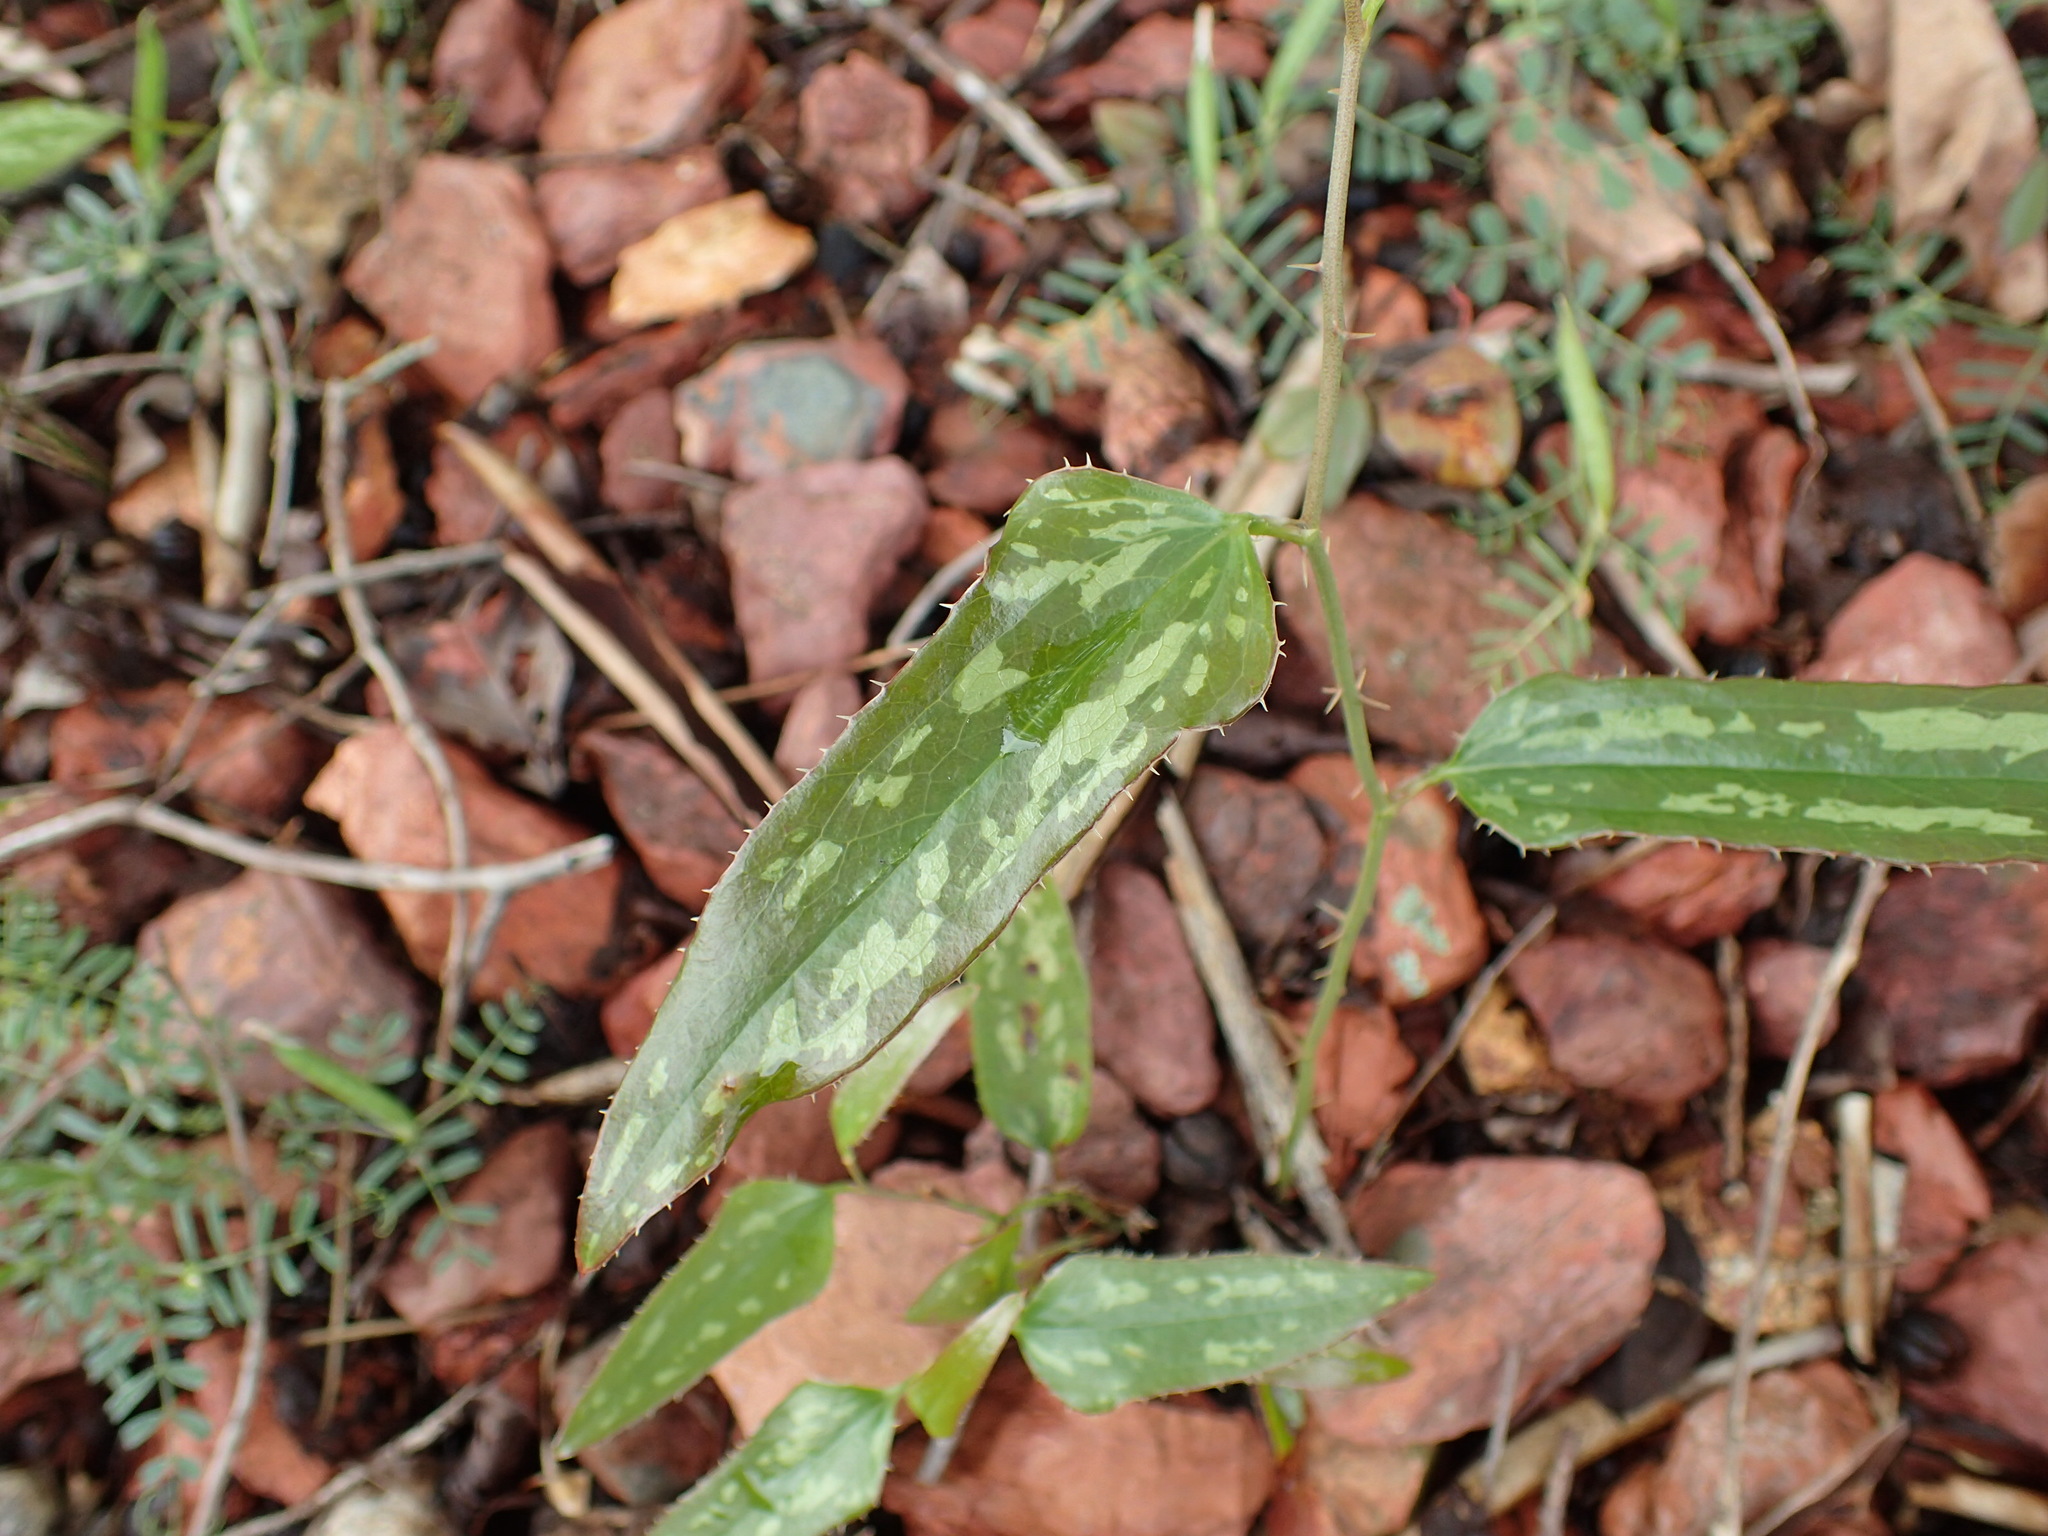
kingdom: Plantae
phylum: Tracheophyta
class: Liliopsida
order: Liliales
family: Smilacaceae
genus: Smilax
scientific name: Smilax bona-nox
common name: Catbrier
